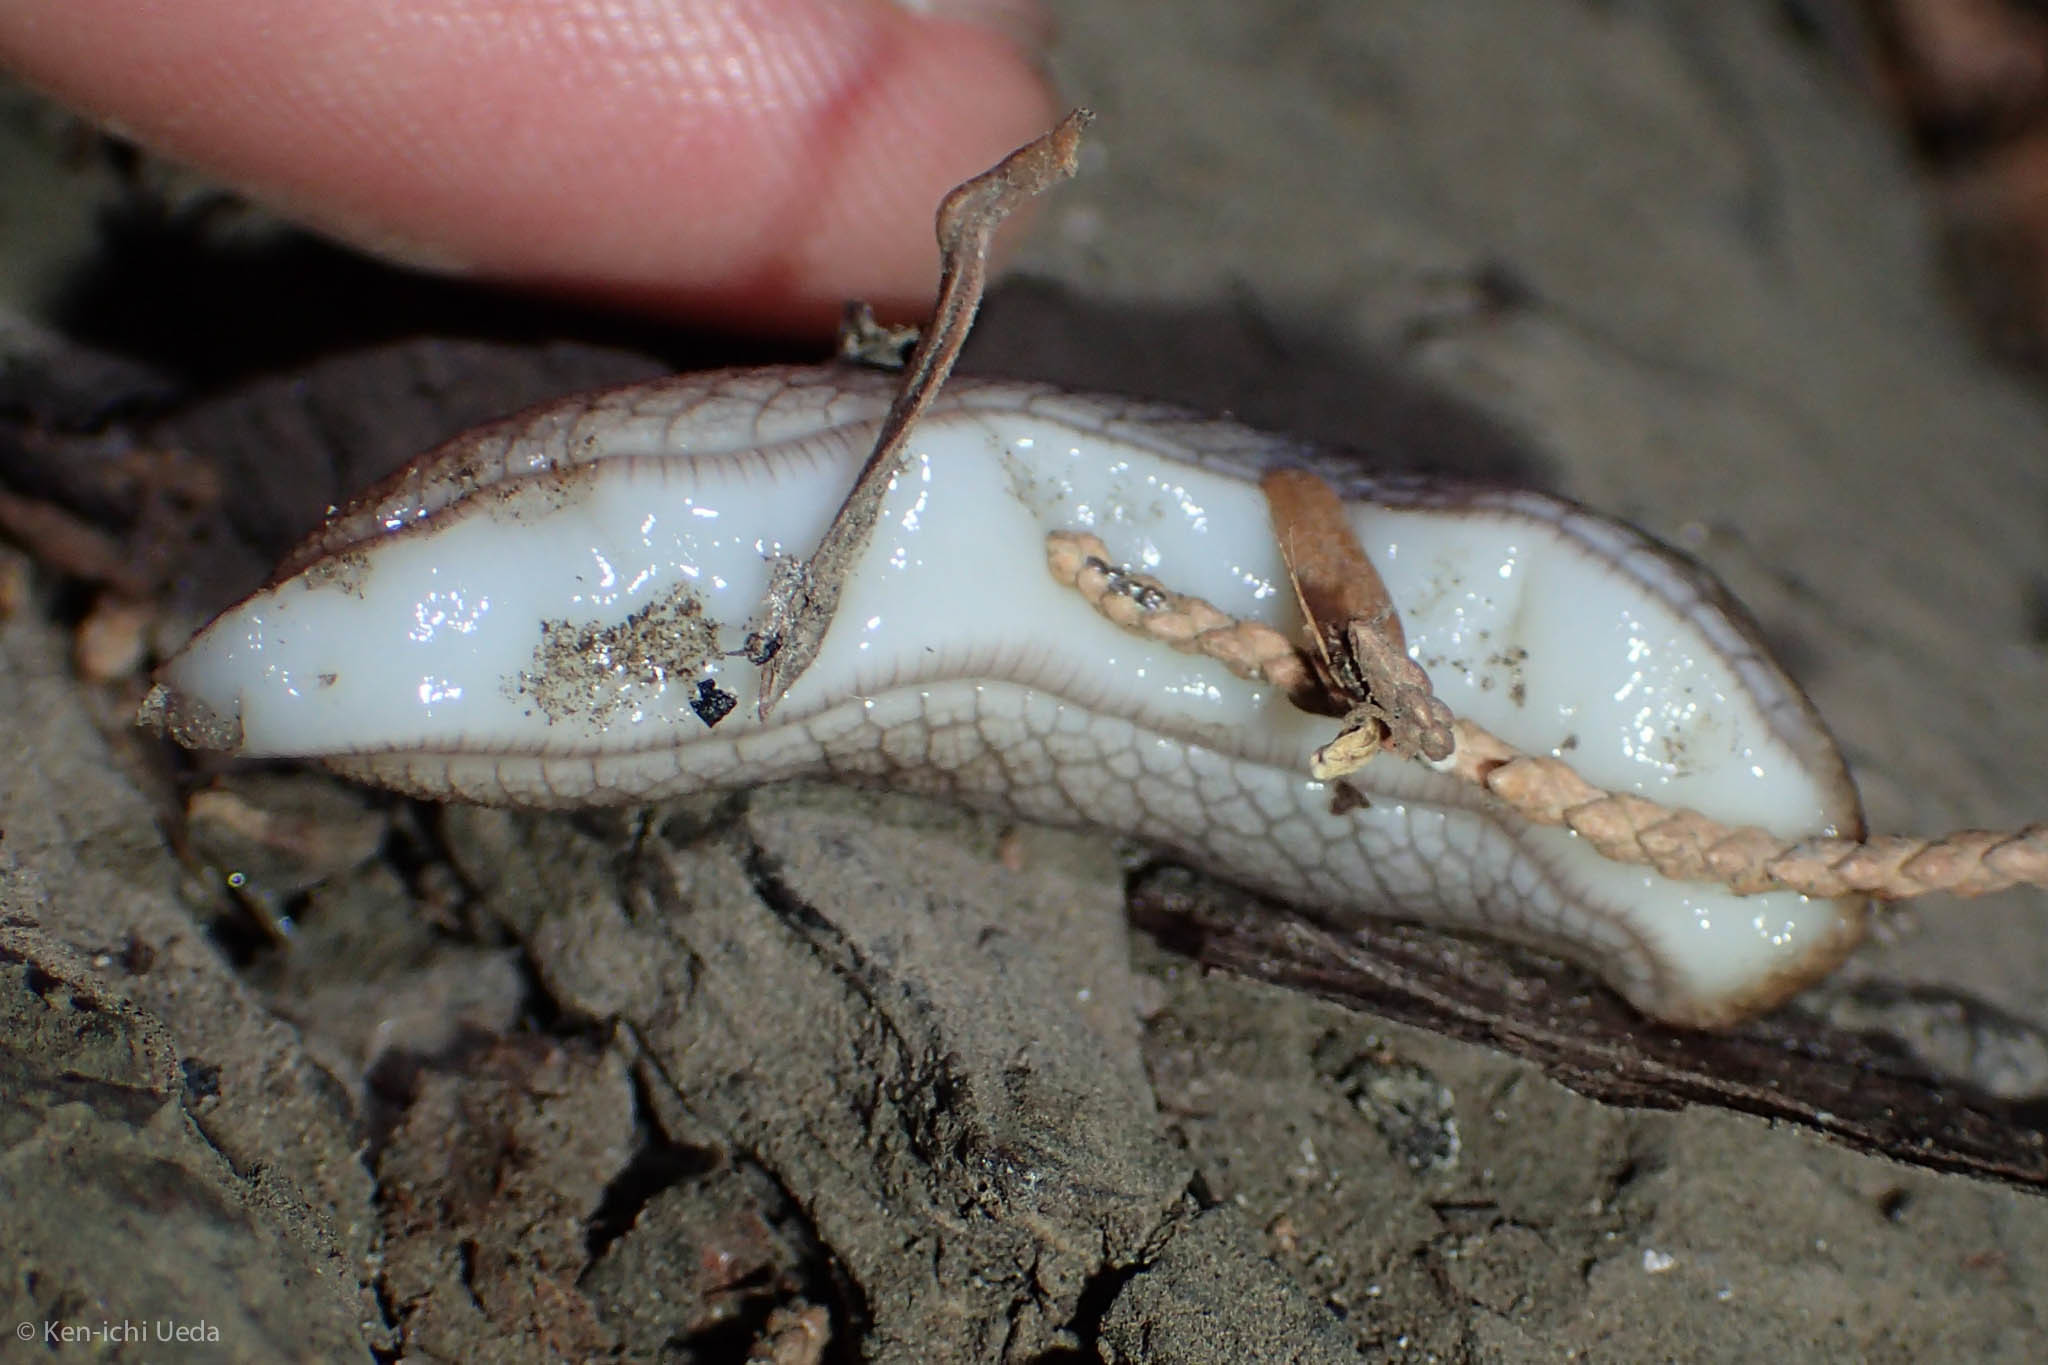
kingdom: Animalia
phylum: Mollusca
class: Gastropoda
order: Stylommatophora
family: Ariolimacidae
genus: Prophysaon
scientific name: Prophysaon andersonii
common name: Reticulate taildropper
